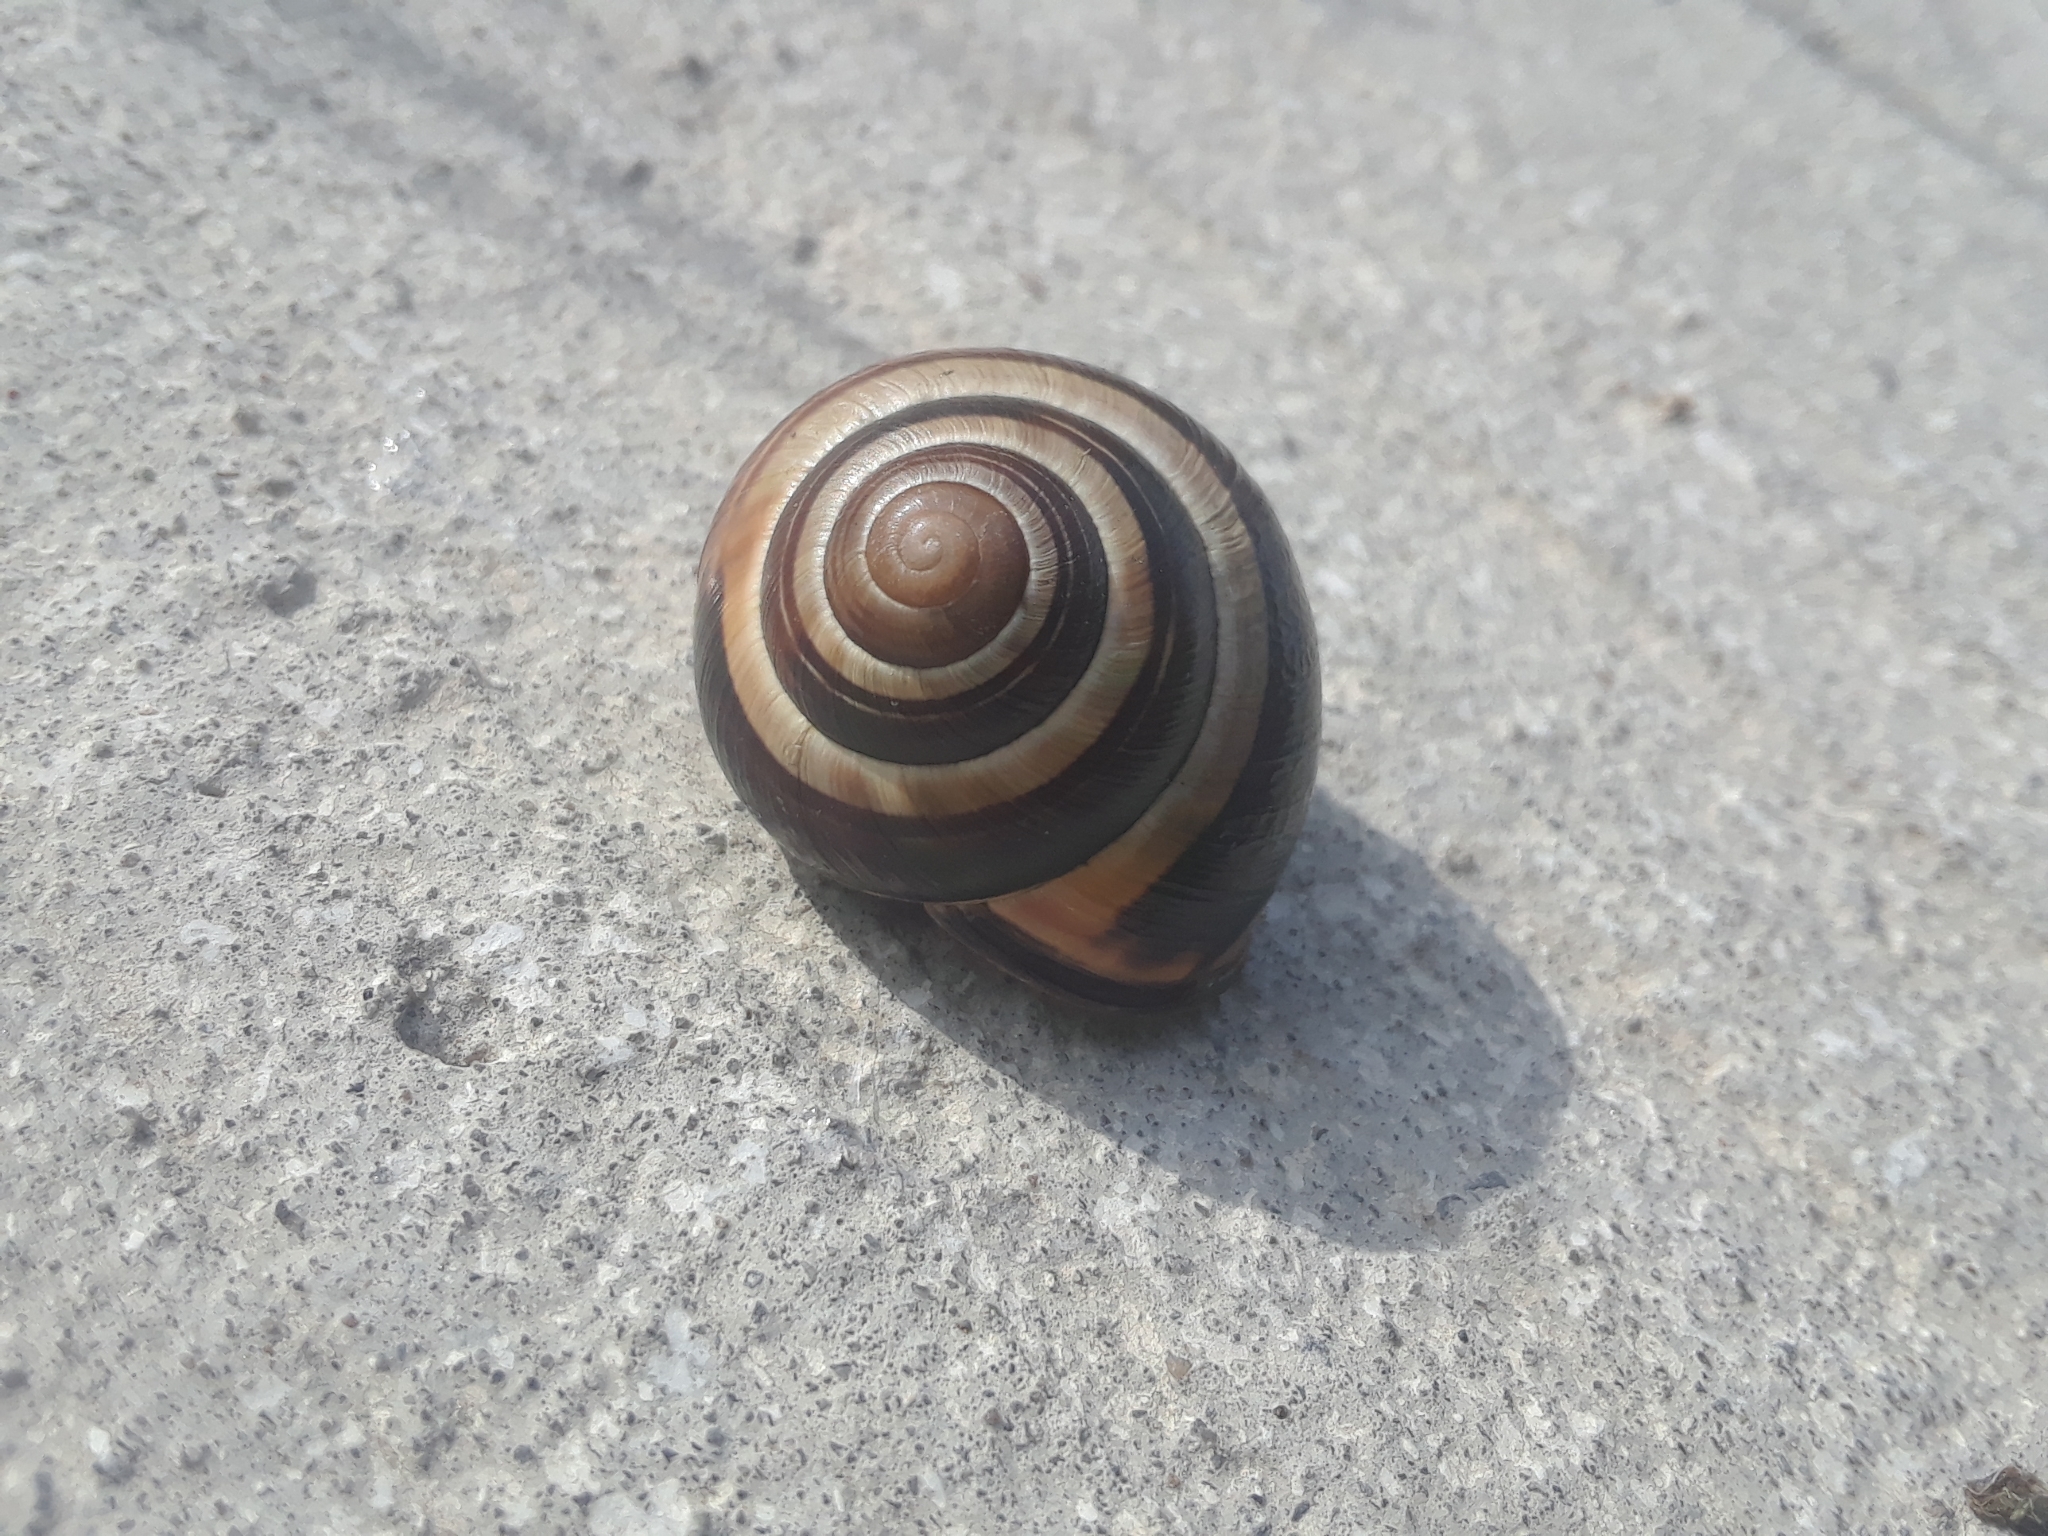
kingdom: Animalia
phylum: Mollusca
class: Gastropoda
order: Stylommatophora
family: Helicidae
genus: Cepaea
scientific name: Cepaea nemoralis
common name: Grovesnail
